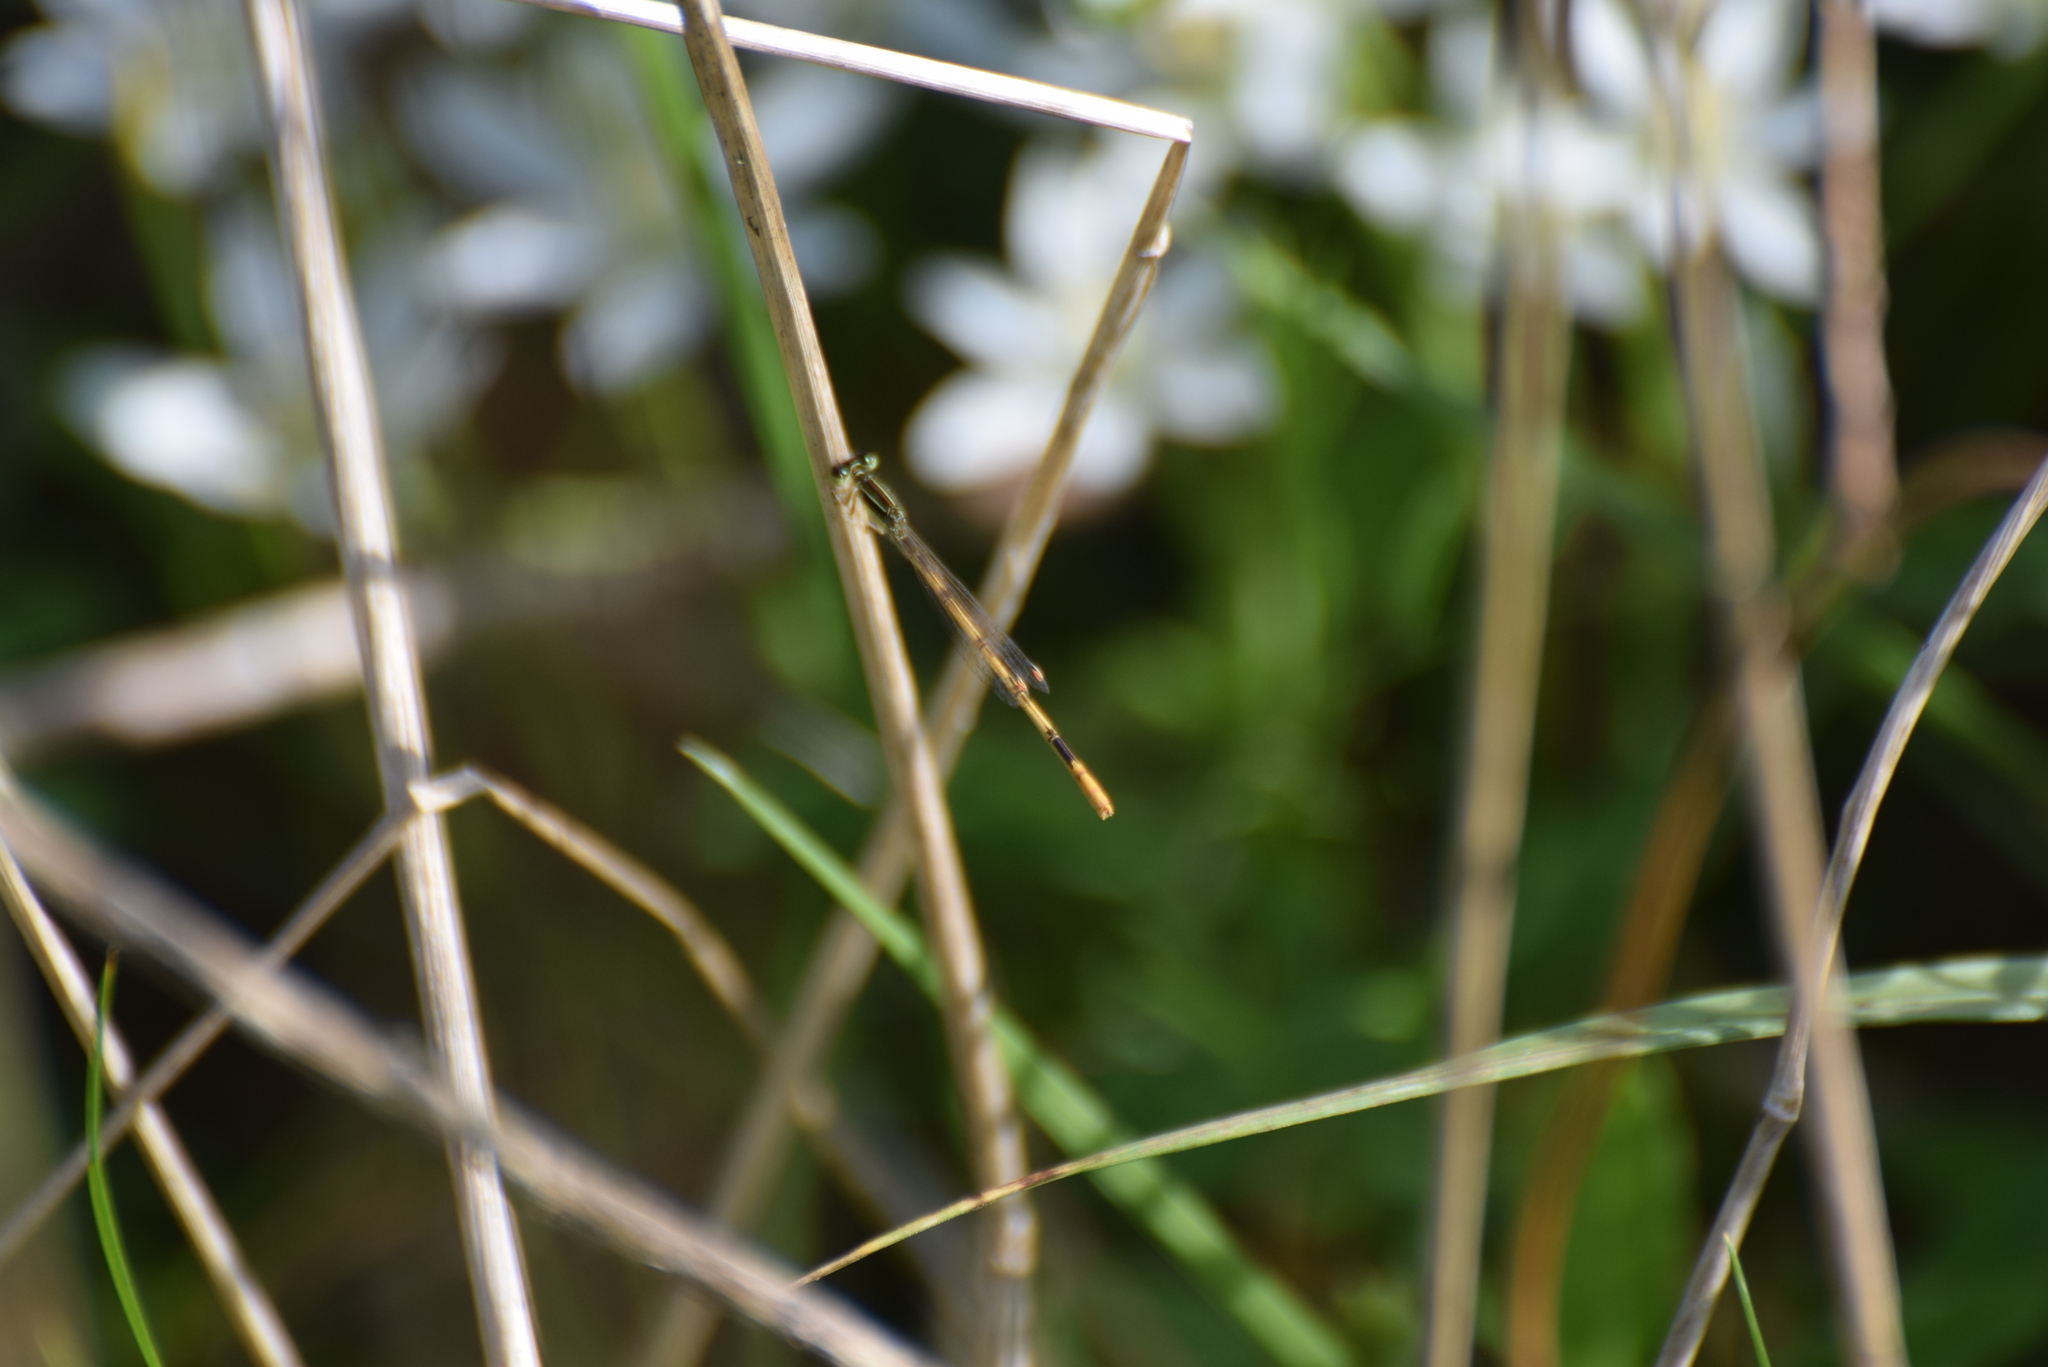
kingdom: Animalia
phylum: Arthropoda
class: Insecta
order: Odonata
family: Coenagrionidae
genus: Ischnura
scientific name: Ischnura hastata
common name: Citrine forktail
